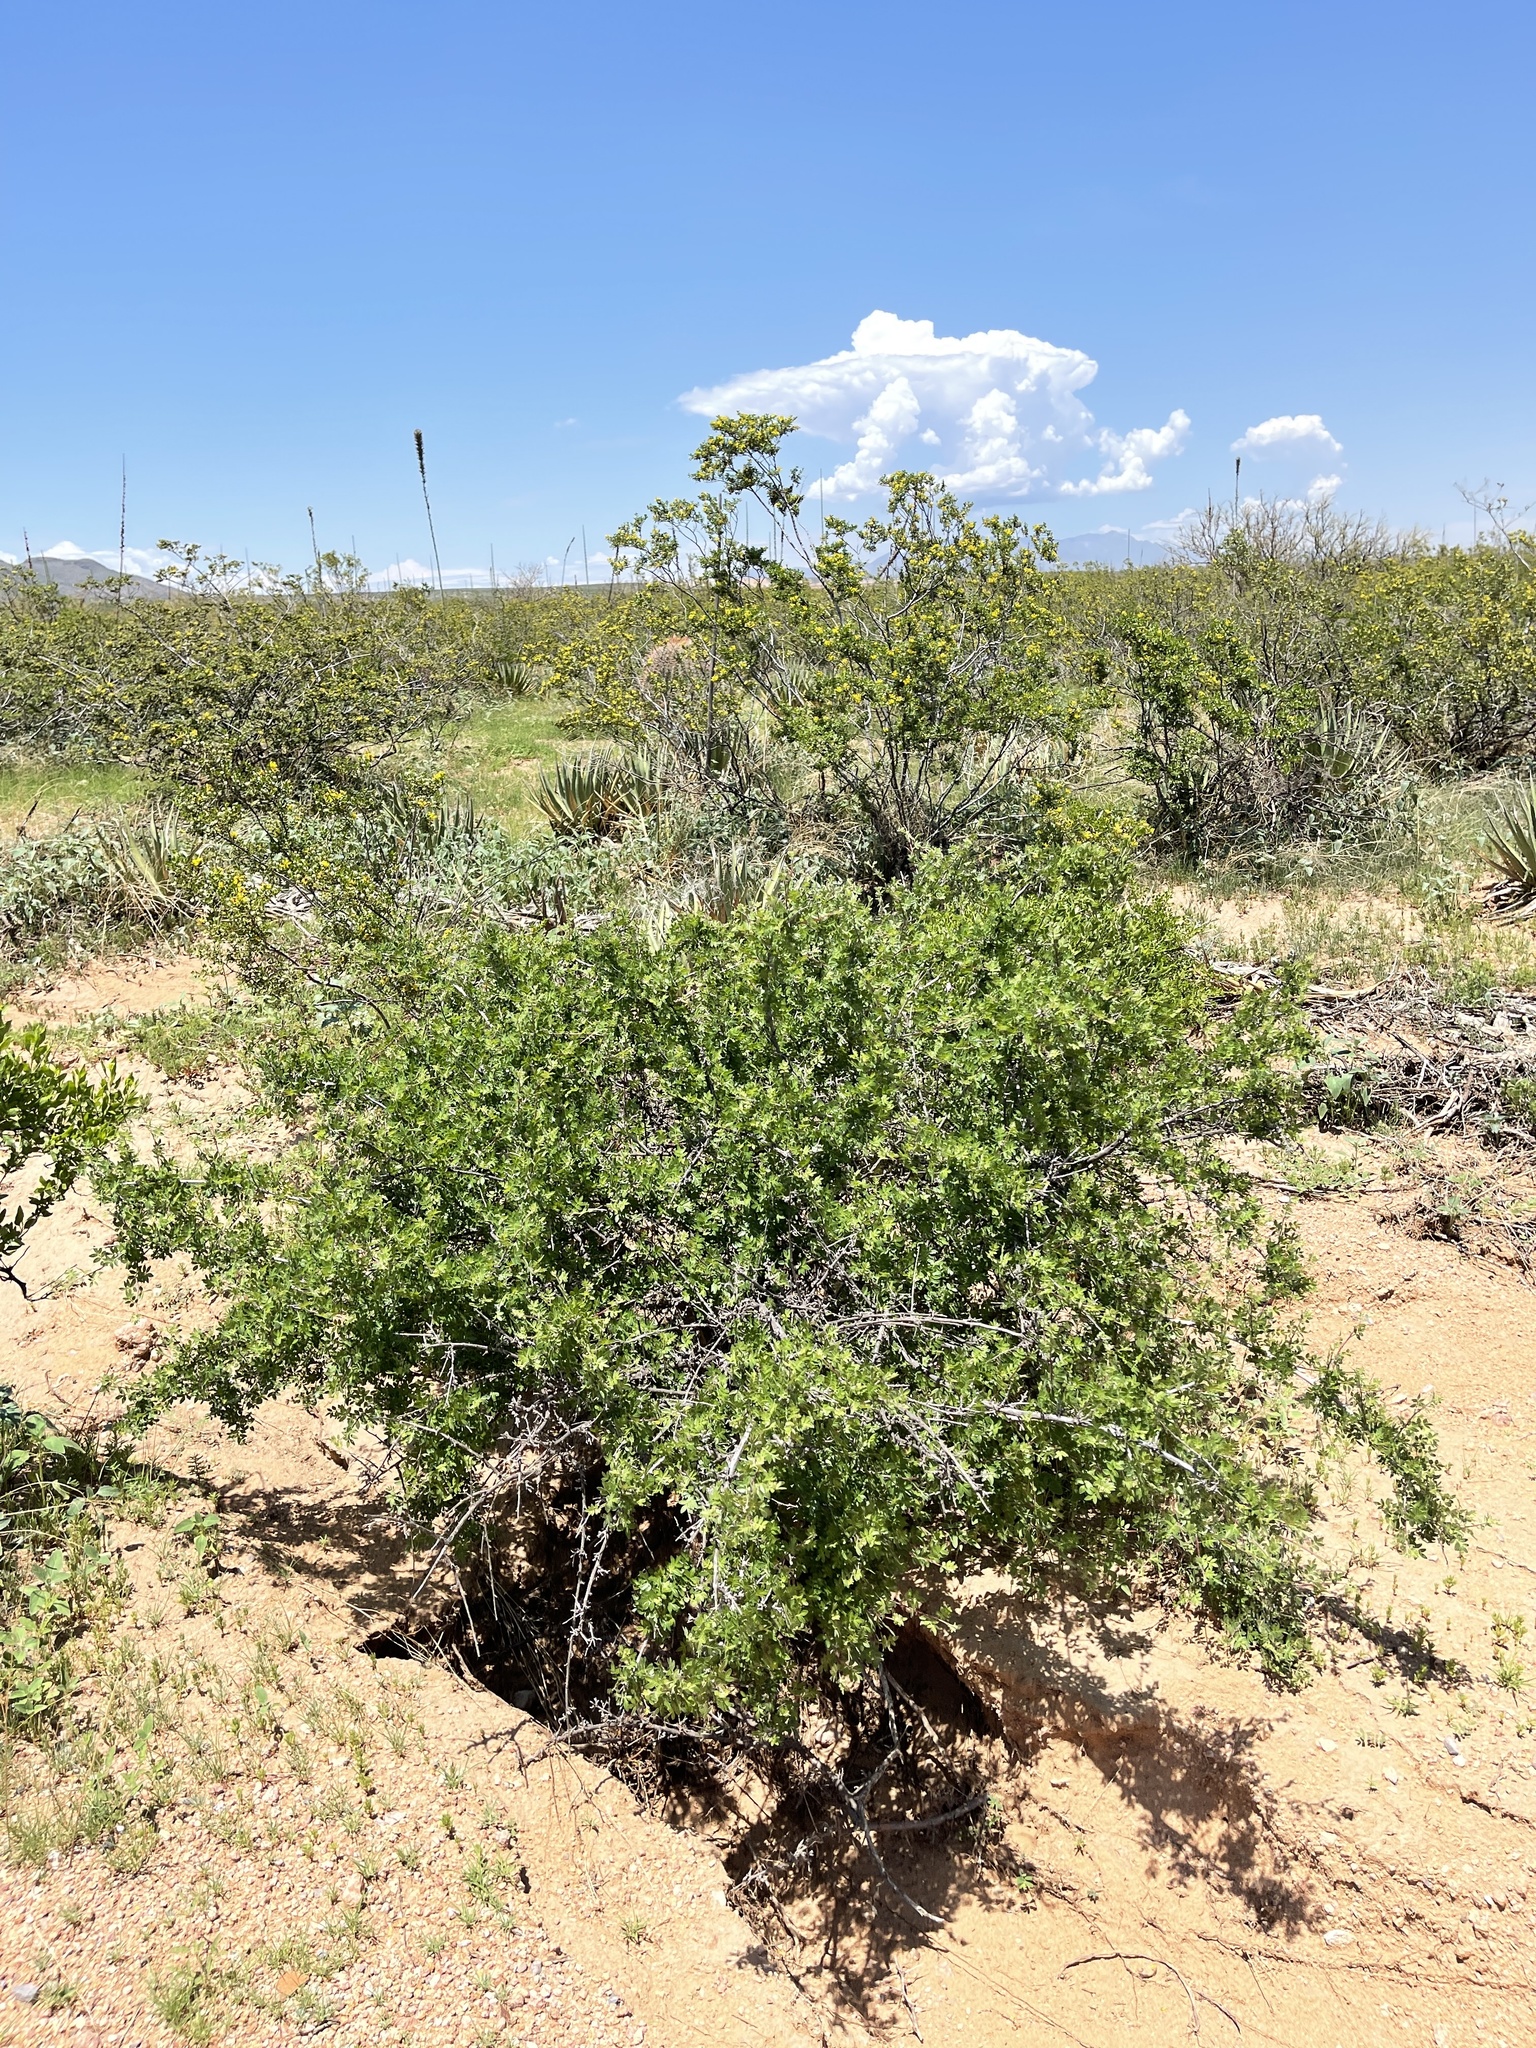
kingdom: Plantae
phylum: Tracheophyta
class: Magnoliopsida
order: Sapindales
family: Anacardiaceae
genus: Rhus
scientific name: Rhus microphylla
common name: Desert sumac
